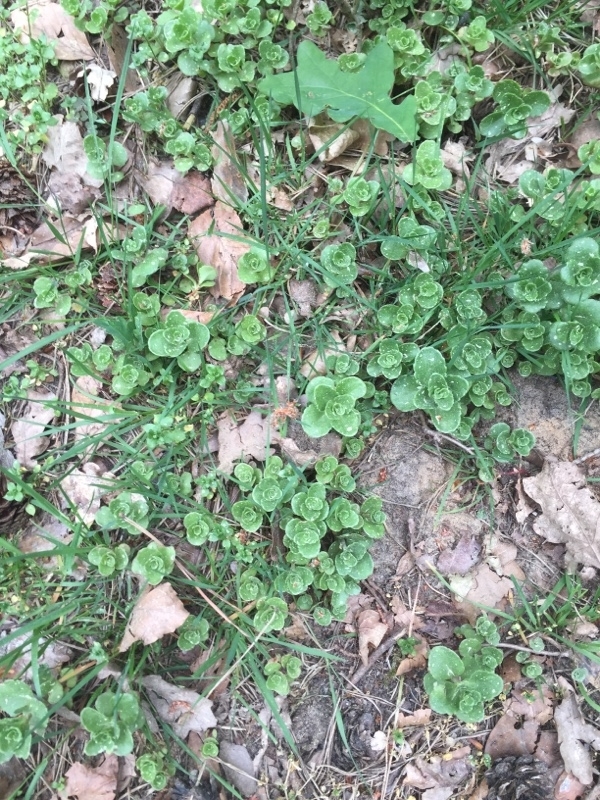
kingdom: Plantae
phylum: Tracheophyta
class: Magnoliopsida
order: Saxifragales
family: Crassulaceae
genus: Phedimus
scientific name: Phedimus spurius
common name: Caucasian stonecrop
